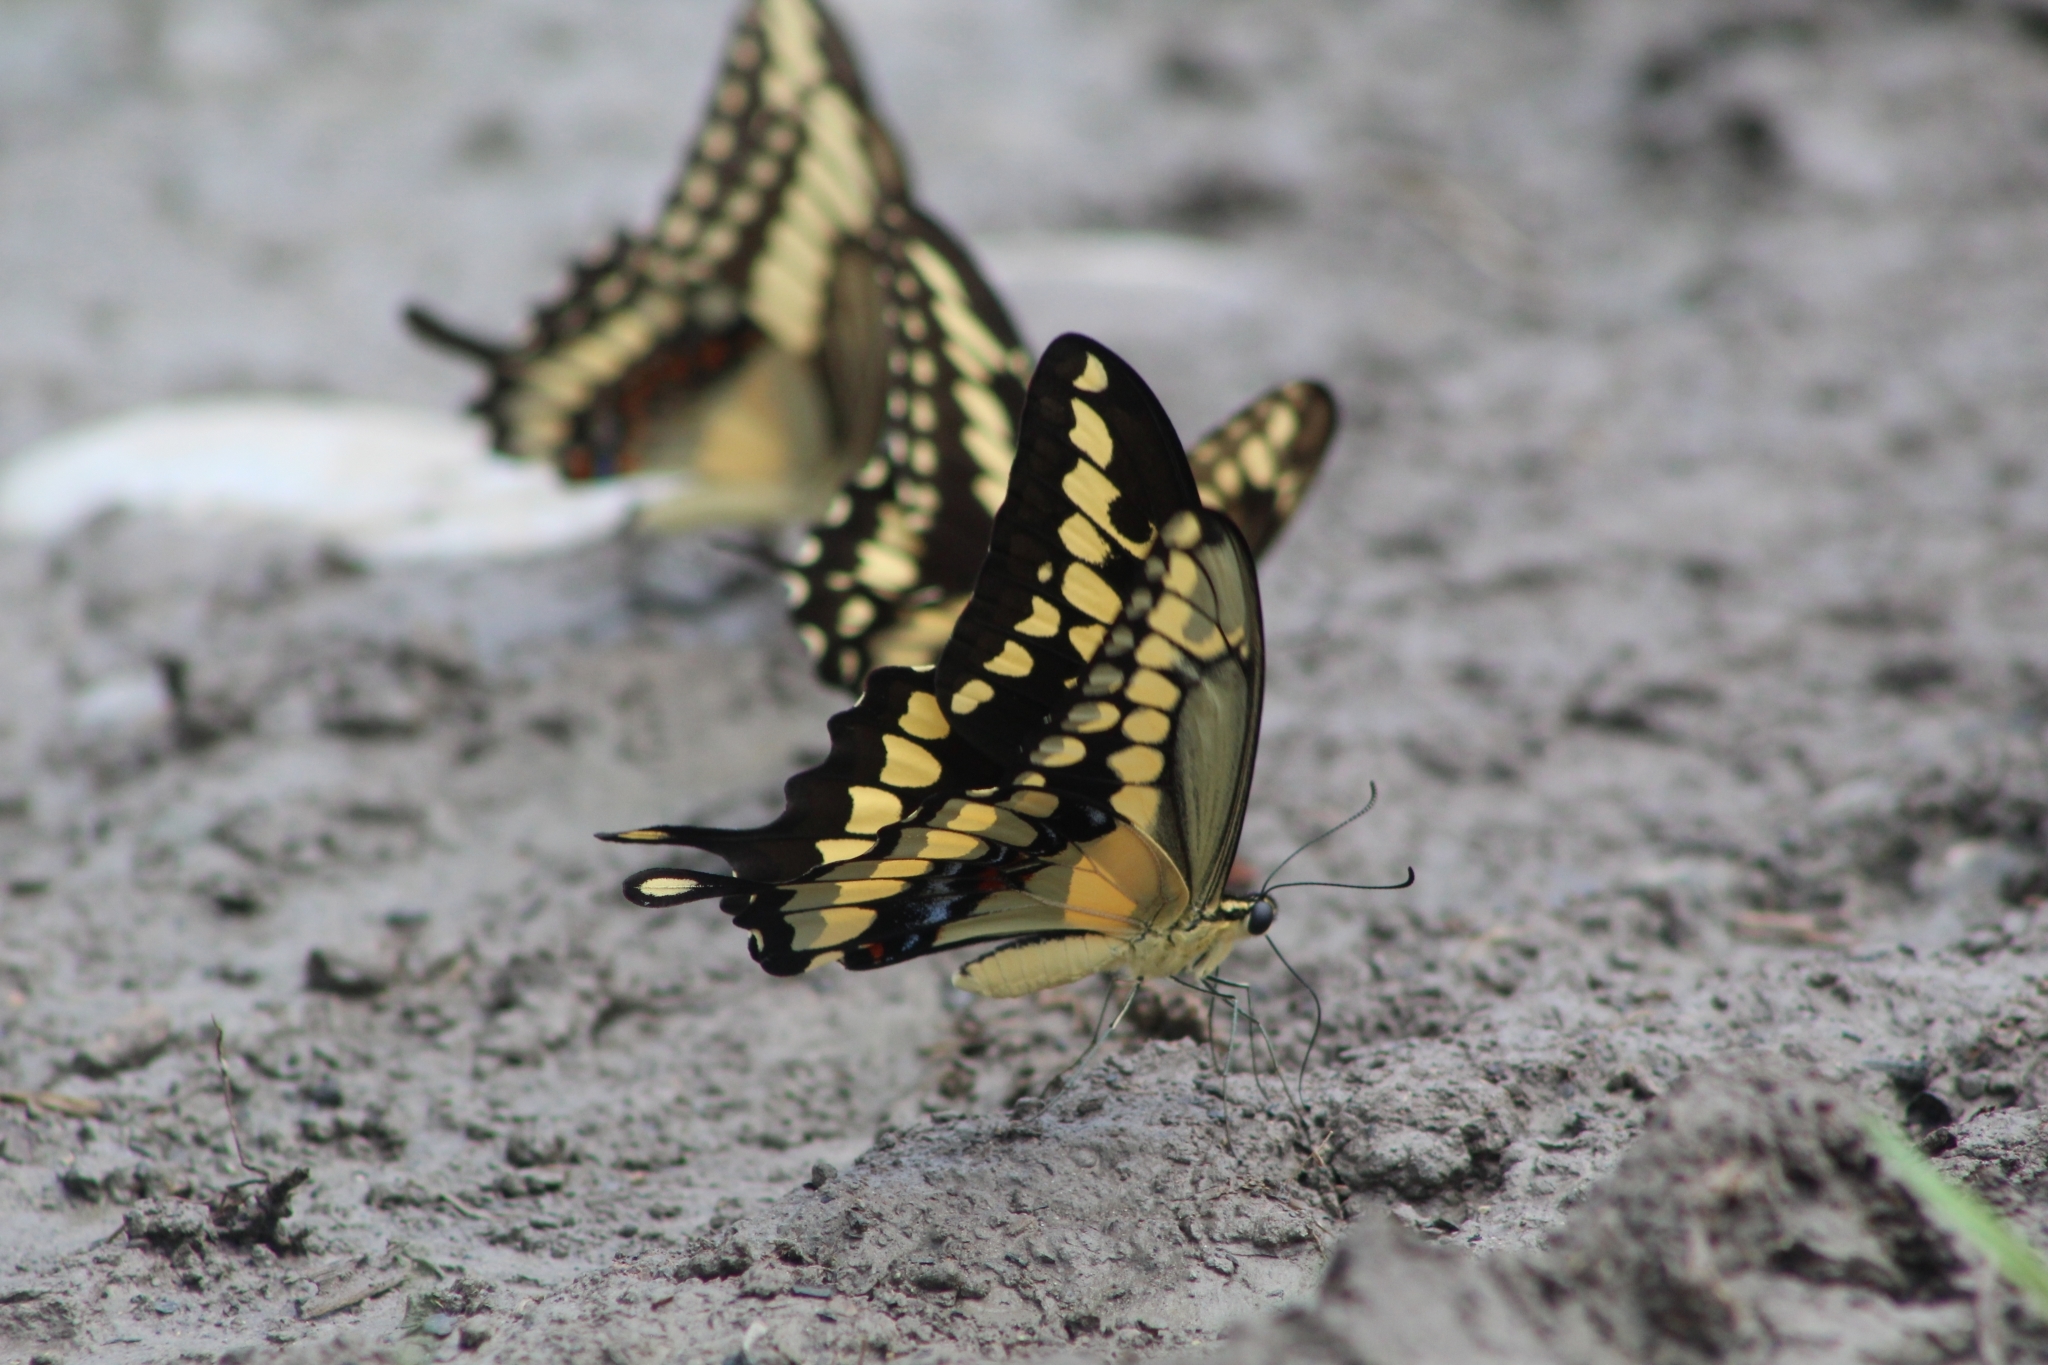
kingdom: Animalia
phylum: Arthropoda
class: Insecta
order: Lepidoptera
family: Papilionidae
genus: Papilio
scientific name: Papilio rumiko
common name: Western giant swallowtail
